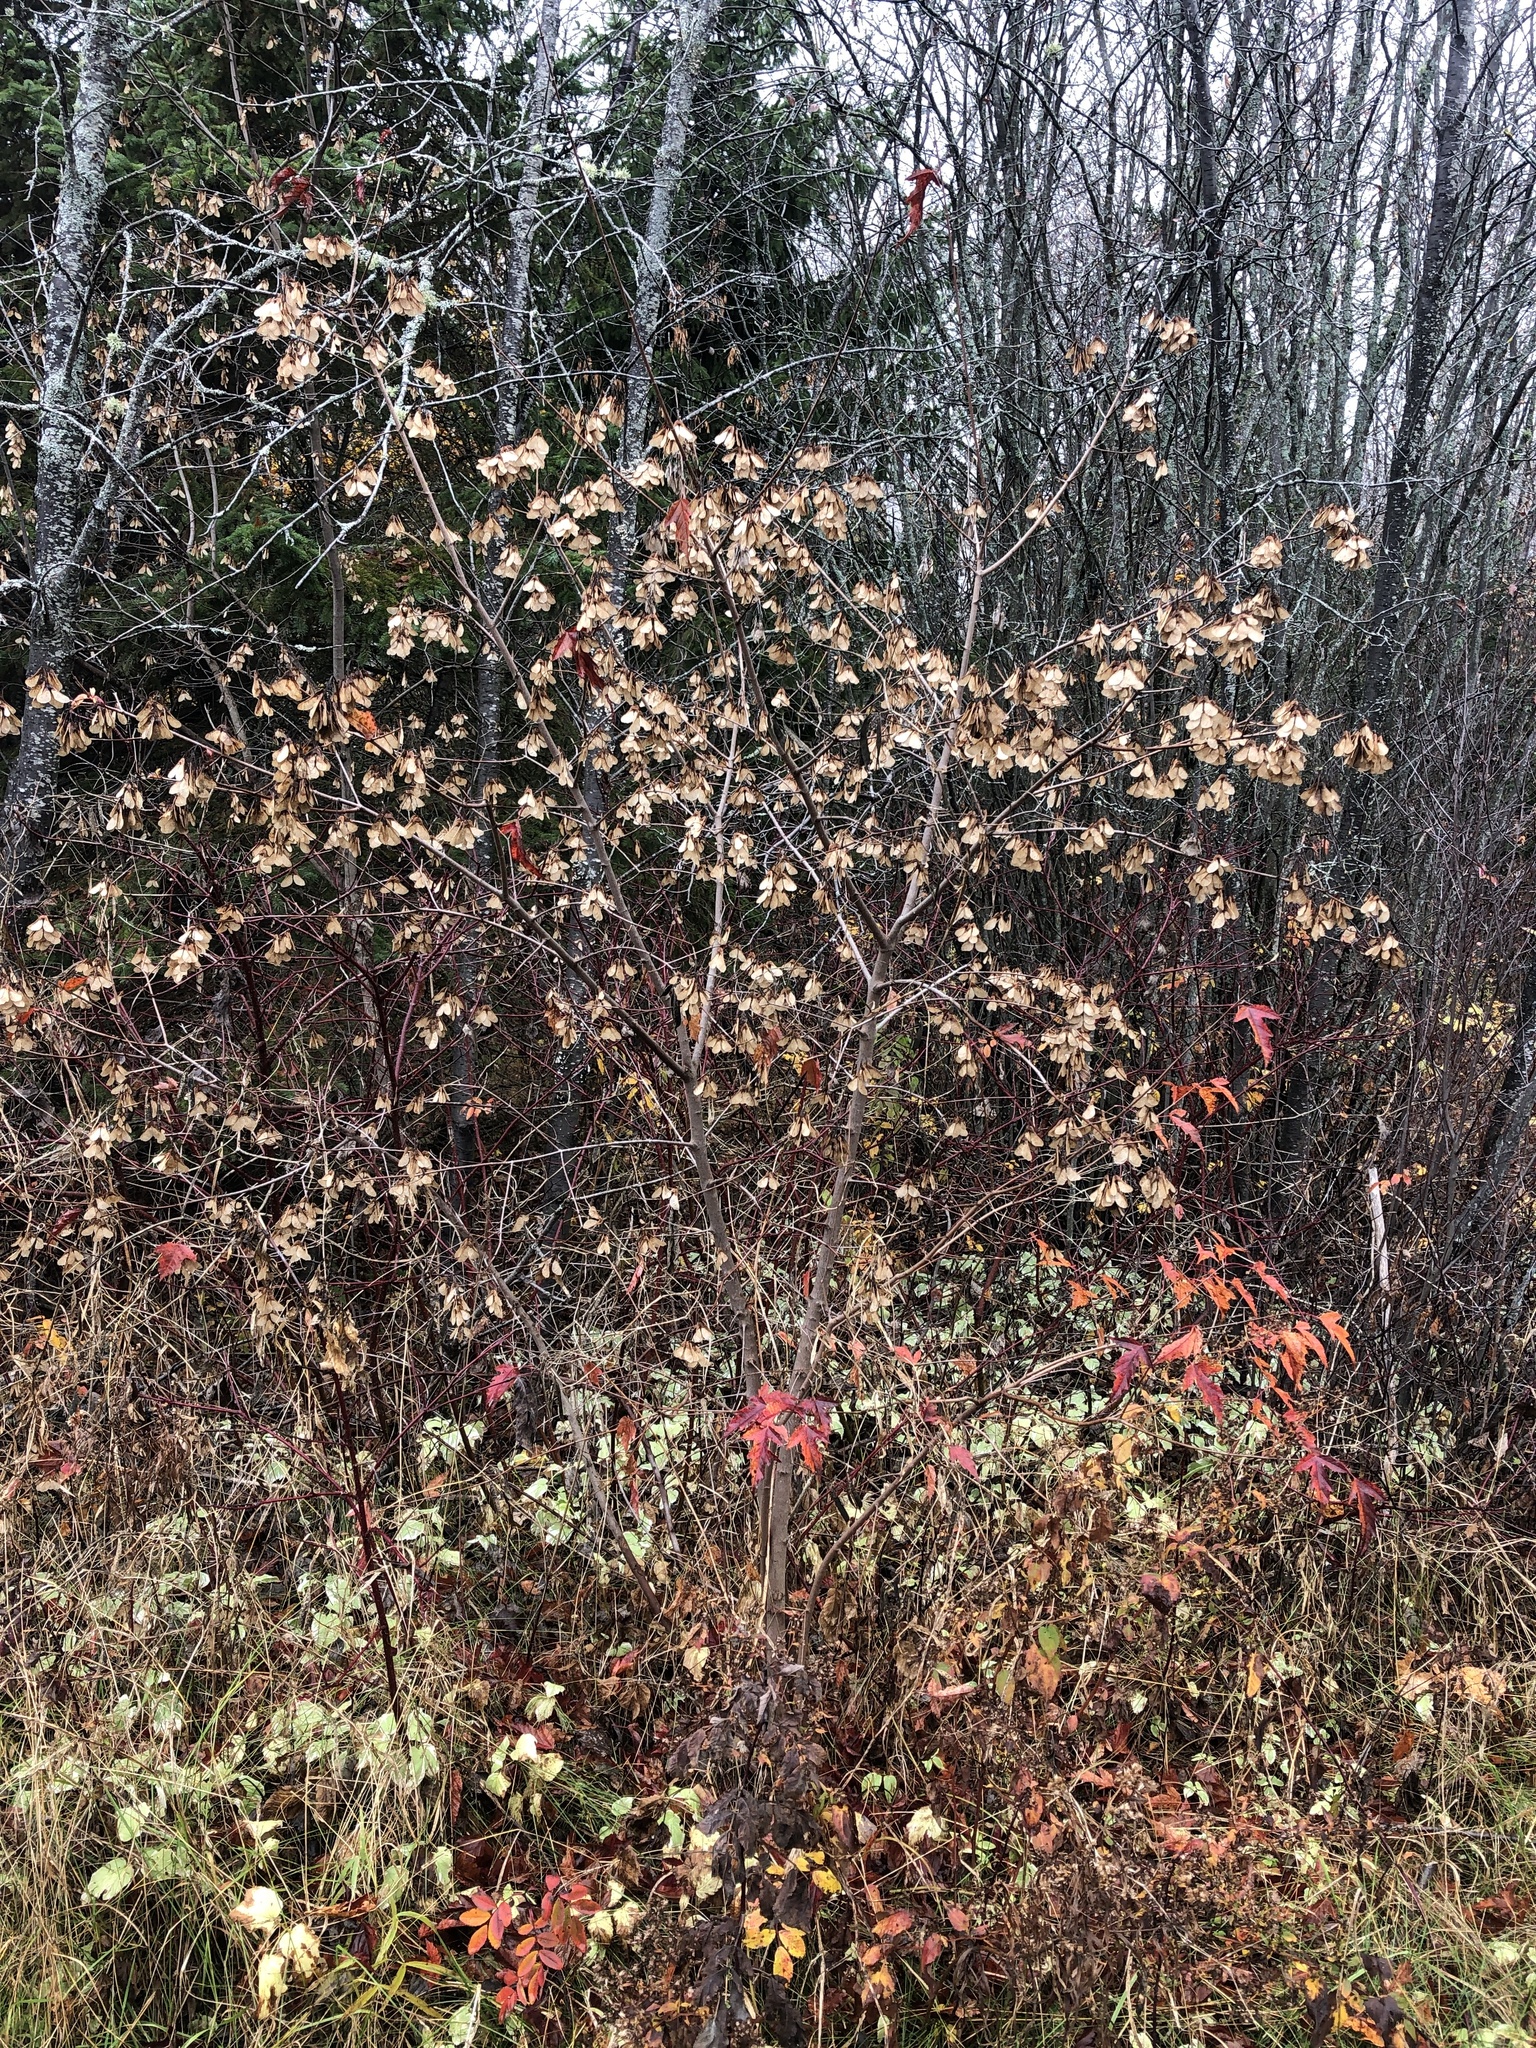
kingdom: Plantae
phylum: Tracheophyta
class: Magnoliopsida
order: Sapindales
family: Sapindaceae
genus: Acer
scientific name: Acer tataricum
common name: Tartar maple
